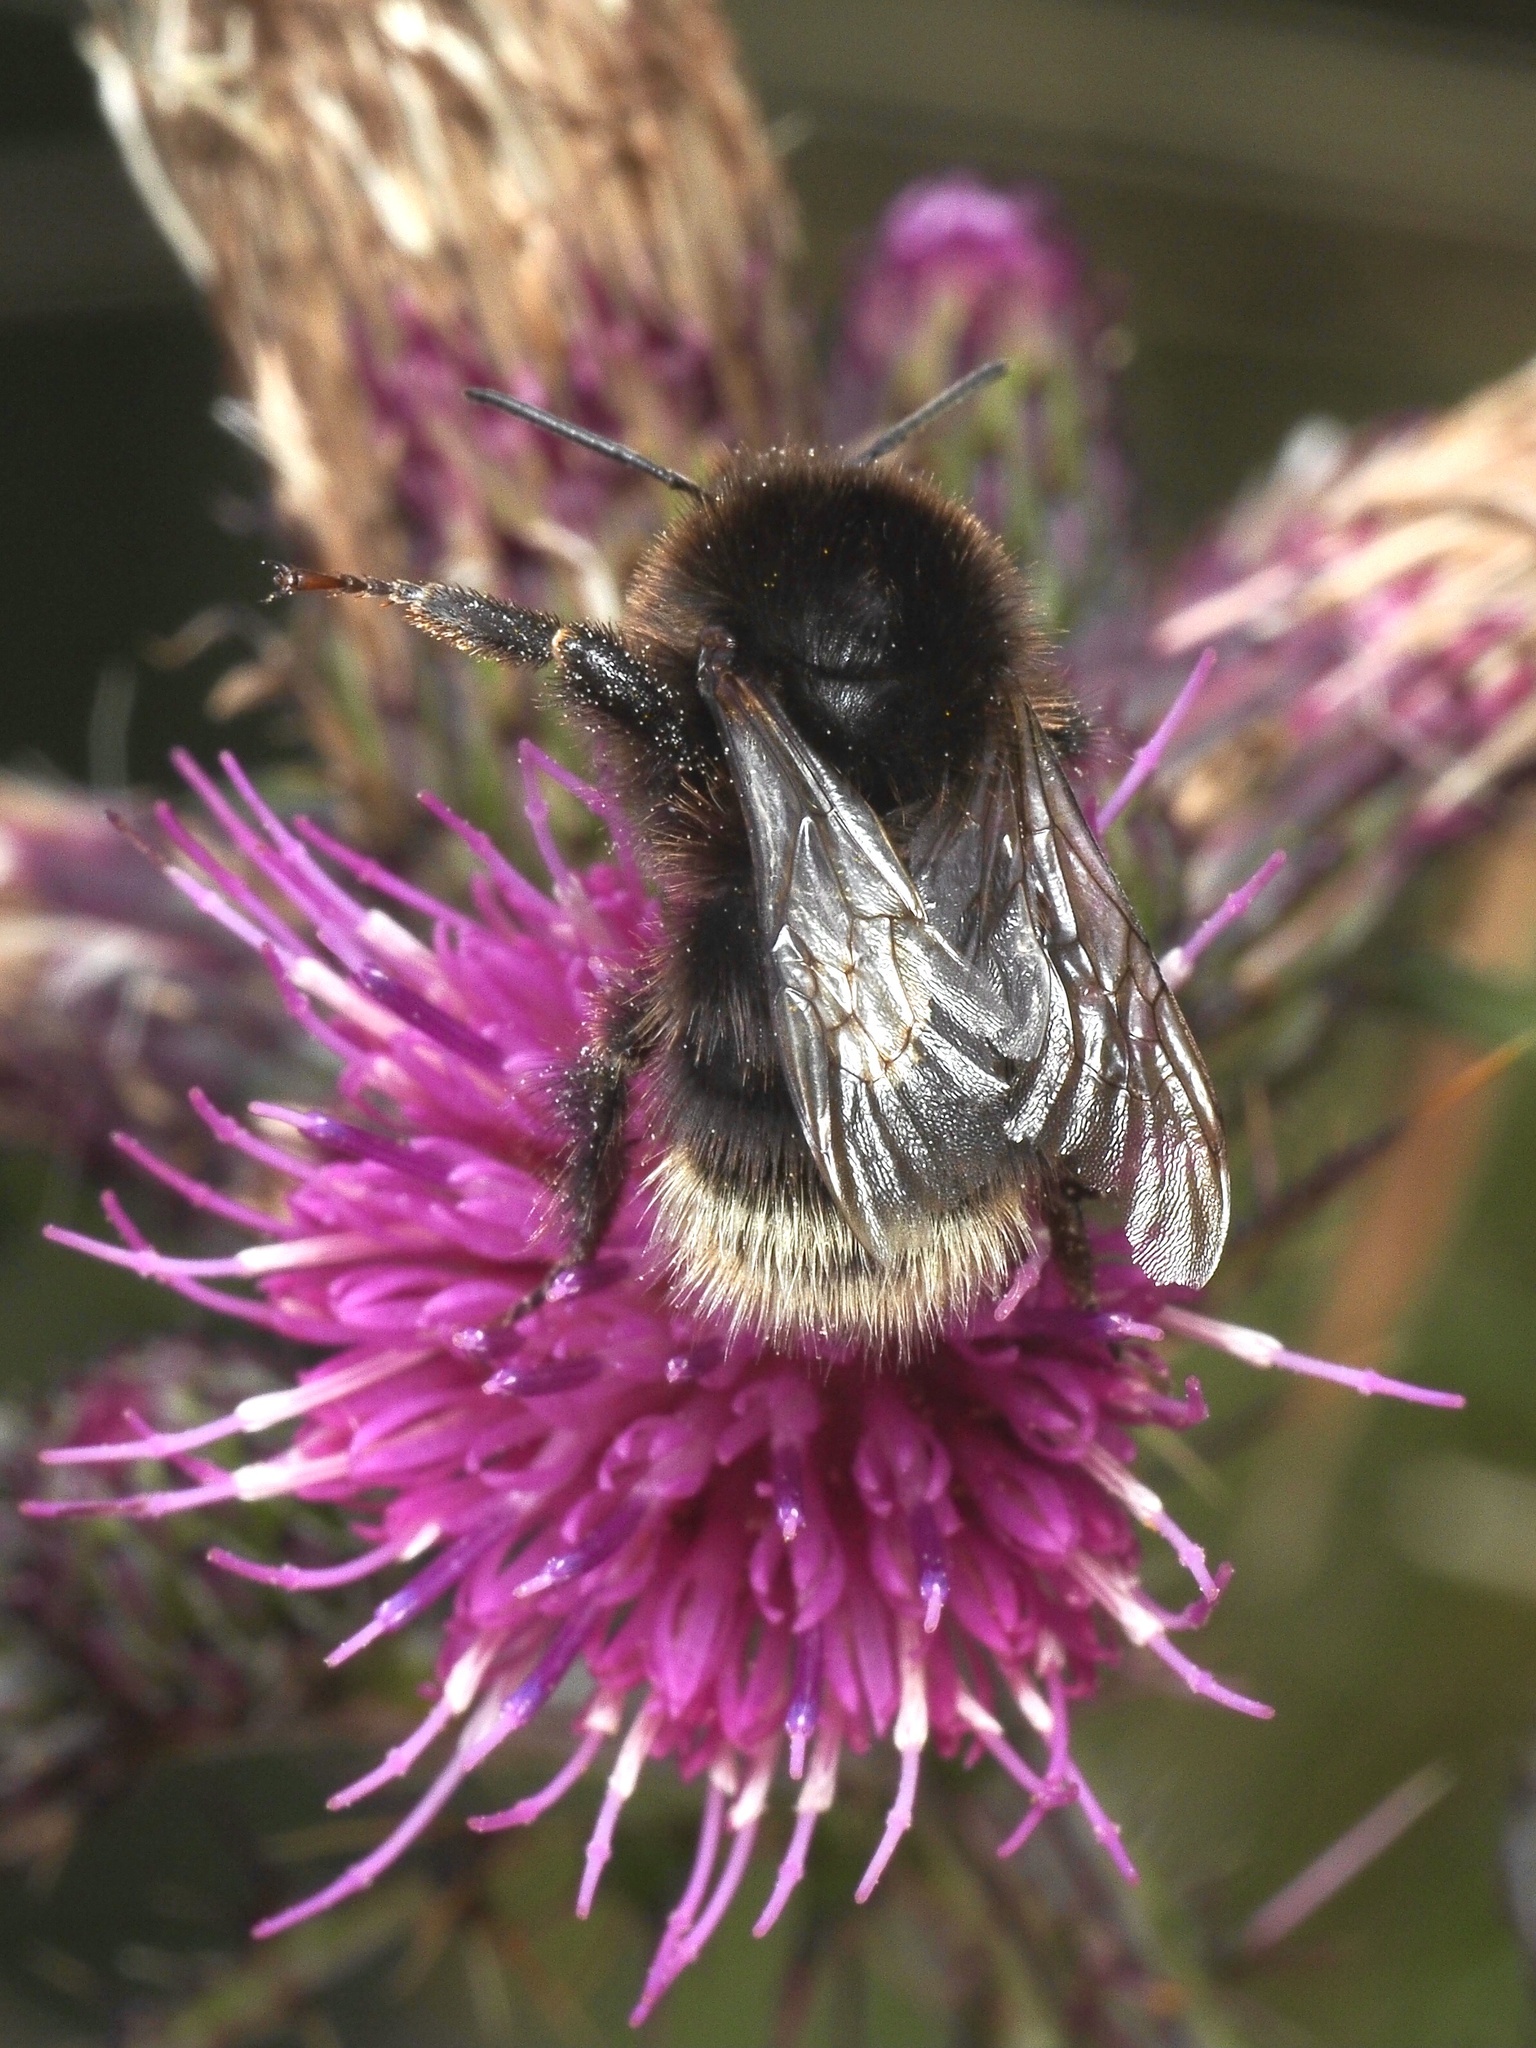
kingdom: Animalia
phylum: Arthropoda
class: Insecta
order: Hymenoptera
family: Apidae
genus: Bombus
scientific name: Bombus hypnorum
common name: New garden bumblebee
